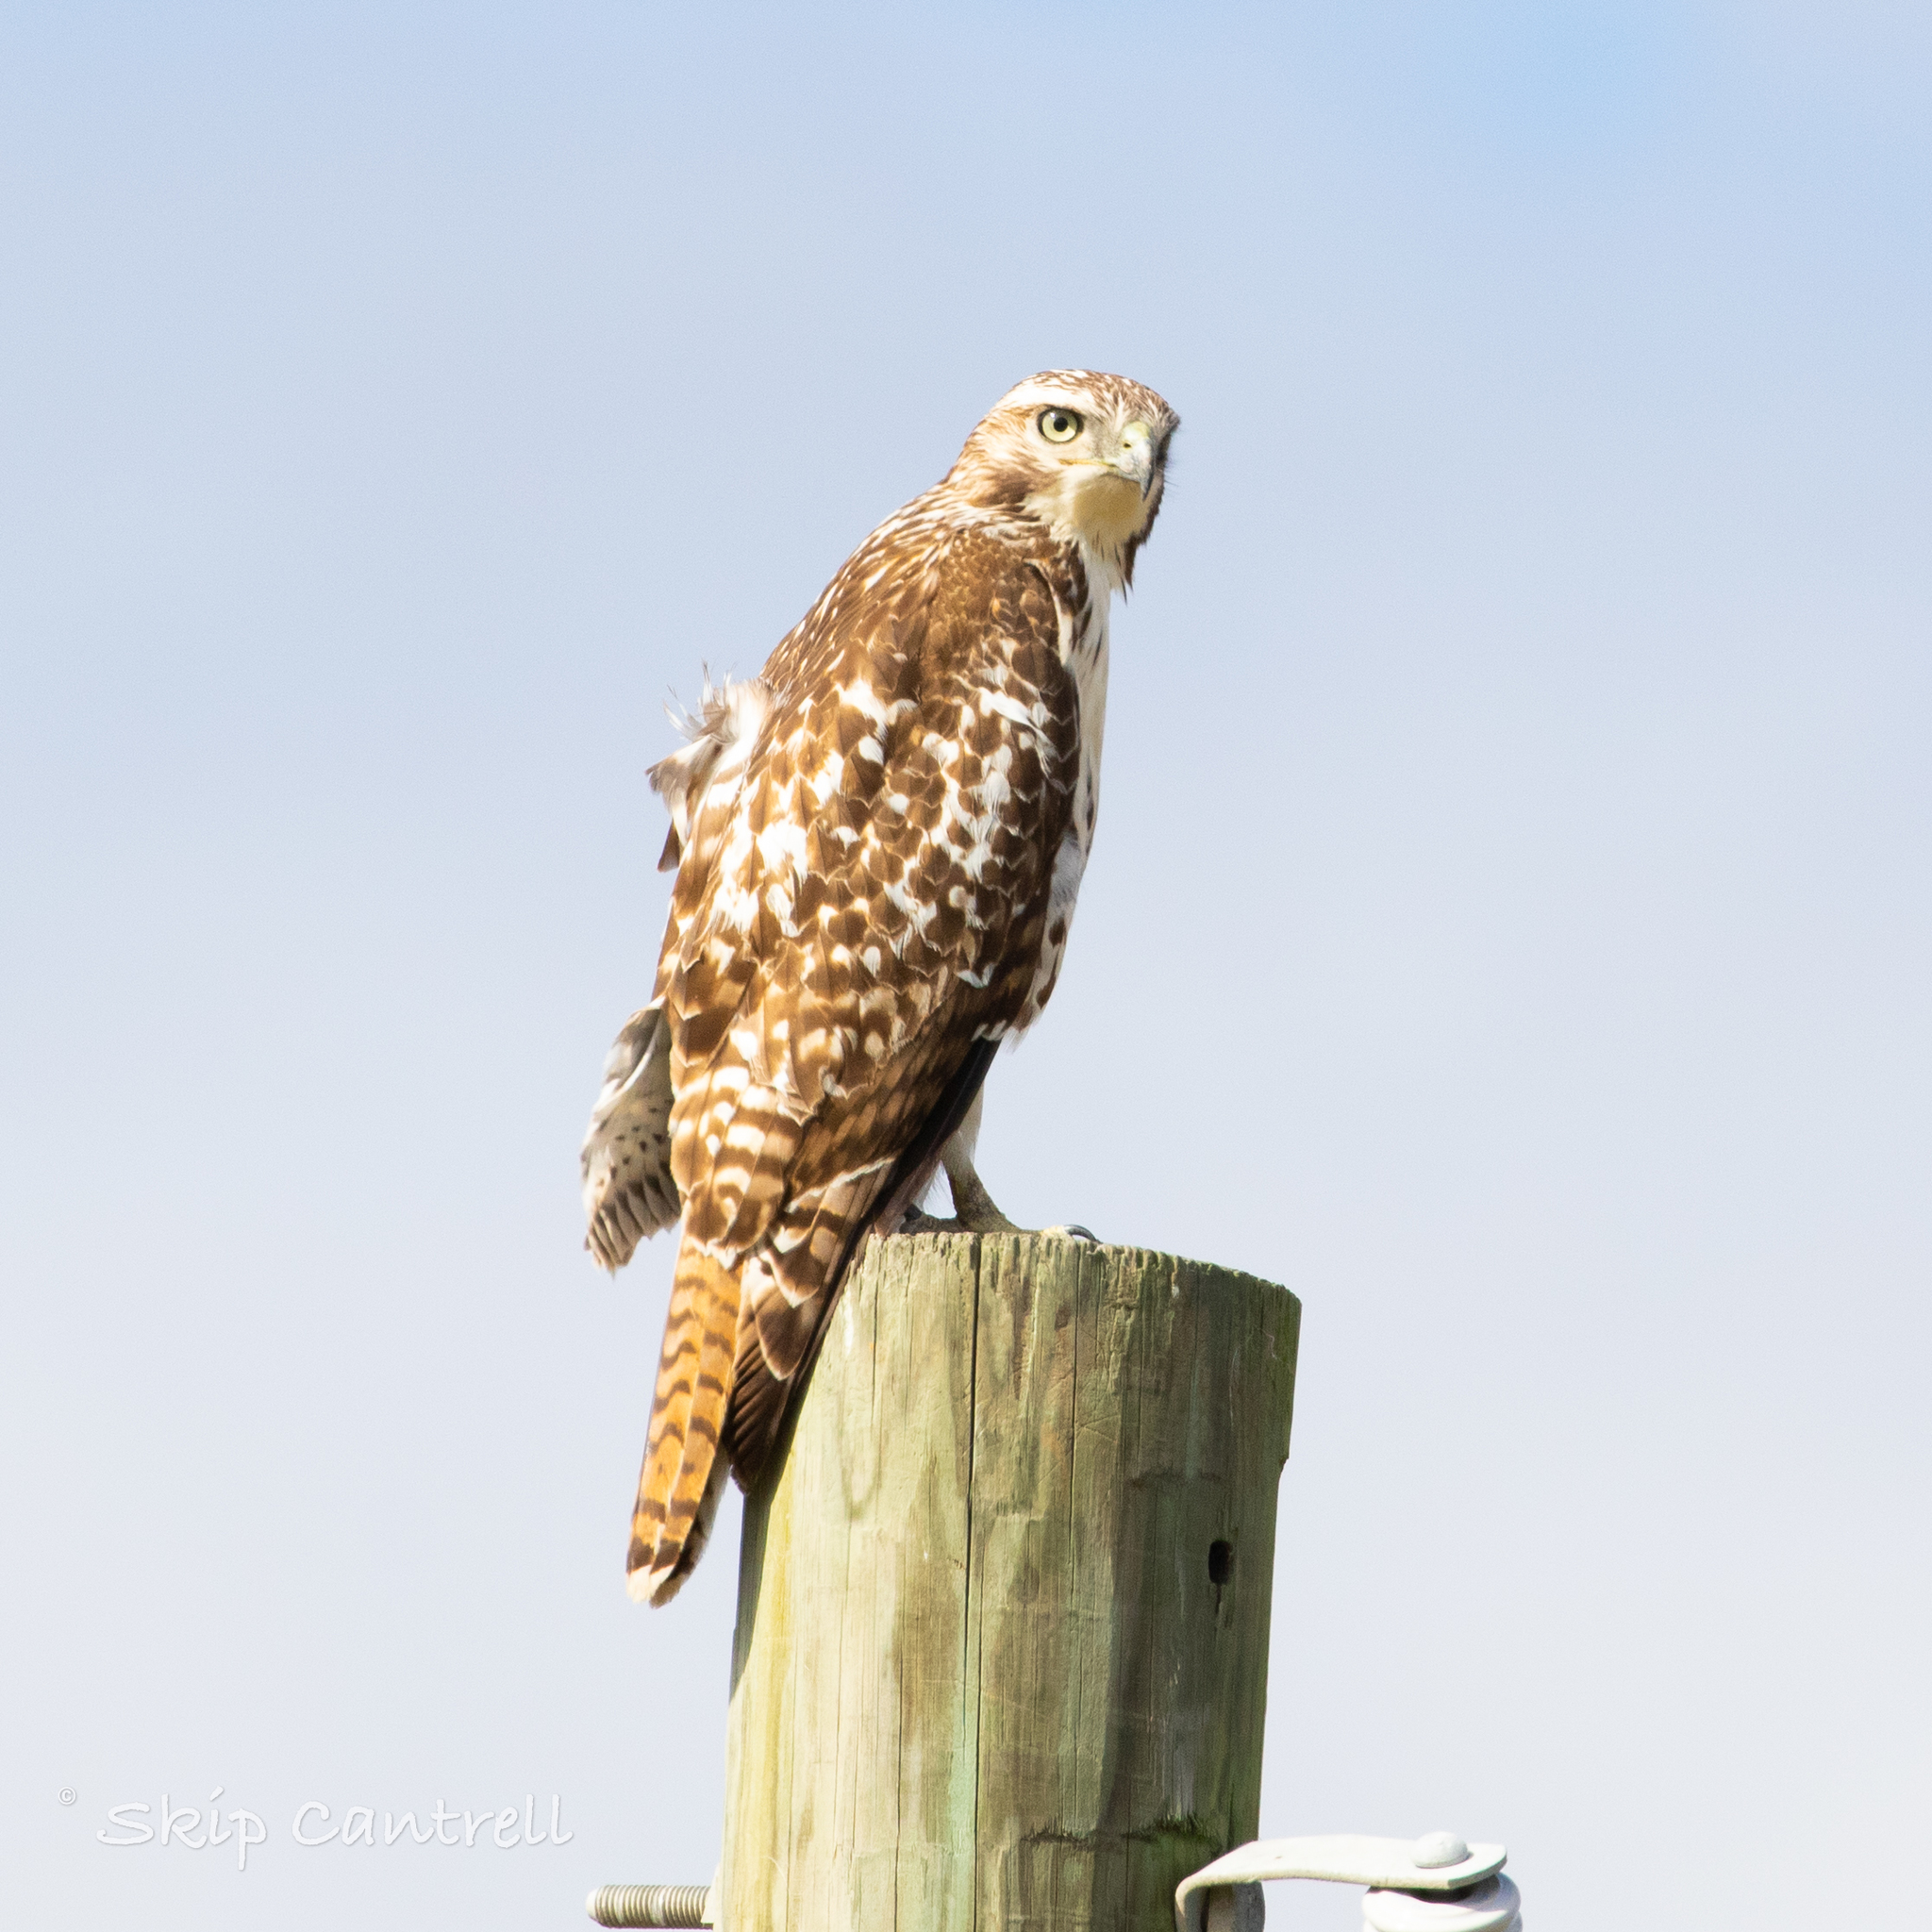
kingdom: Animalia
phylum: Chordata
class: Aves
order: Accipitriformes
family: Accipitridae
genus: Buteo
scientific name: Buteo jamaicensis
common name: Red-tailed hawk
